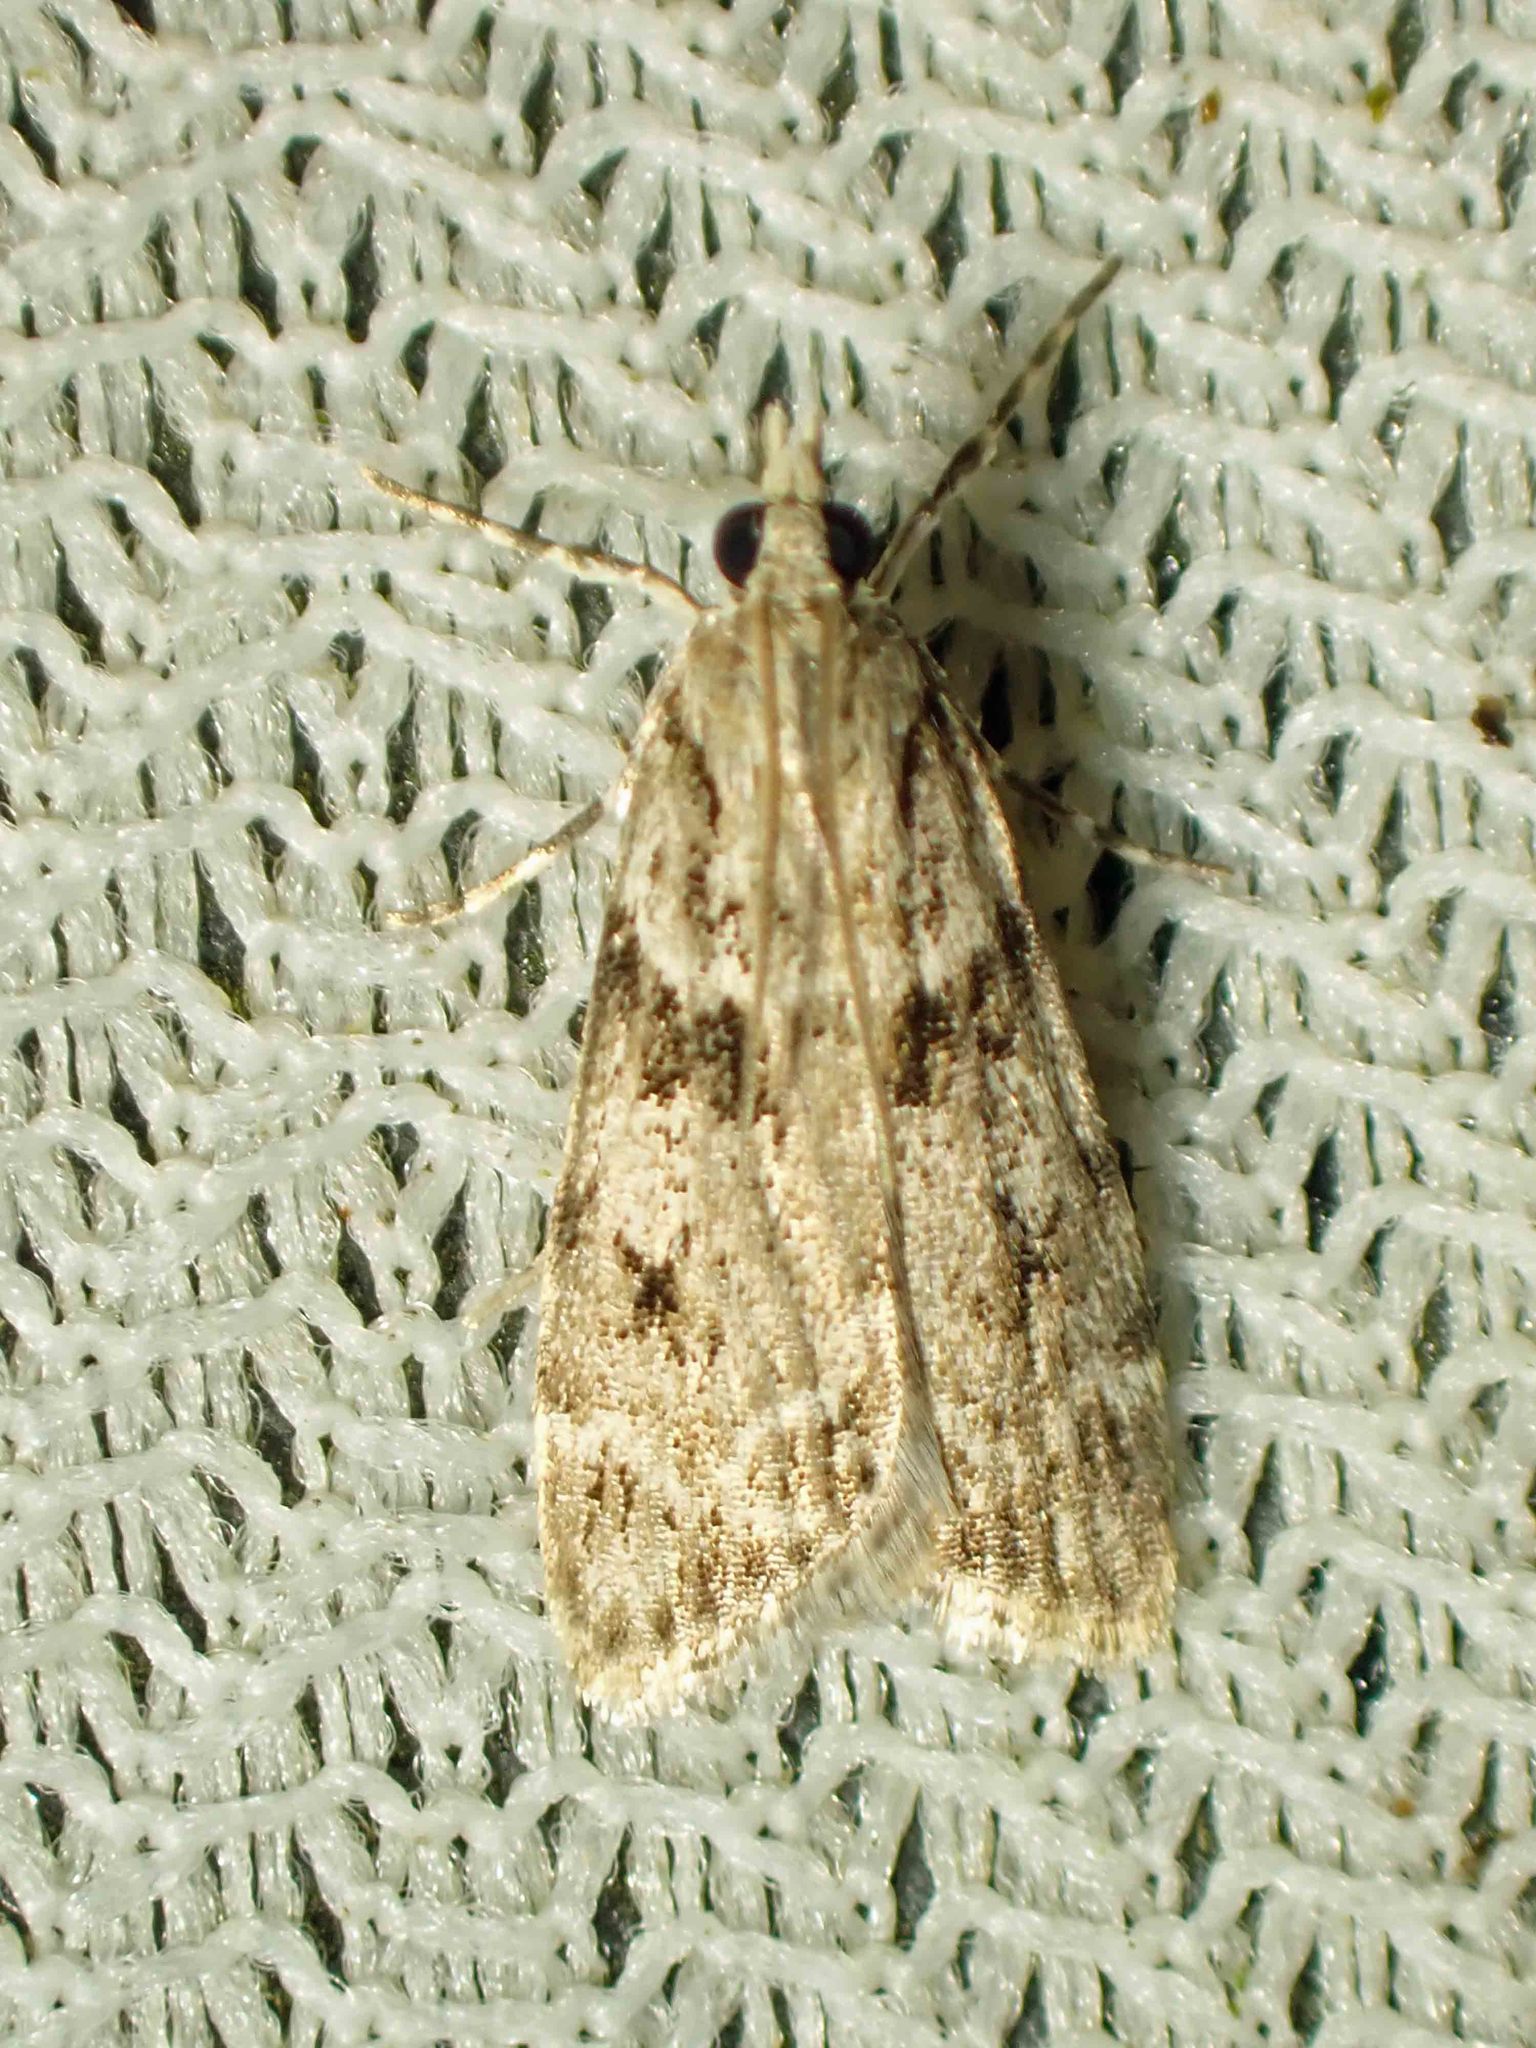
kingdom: Animalia
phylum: Arthropoda
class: Insecta
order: Lepidoptera
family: Crambidae
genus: Scoparia
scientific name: Scoparia biplagialis
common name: Double-striped scoparia moth
